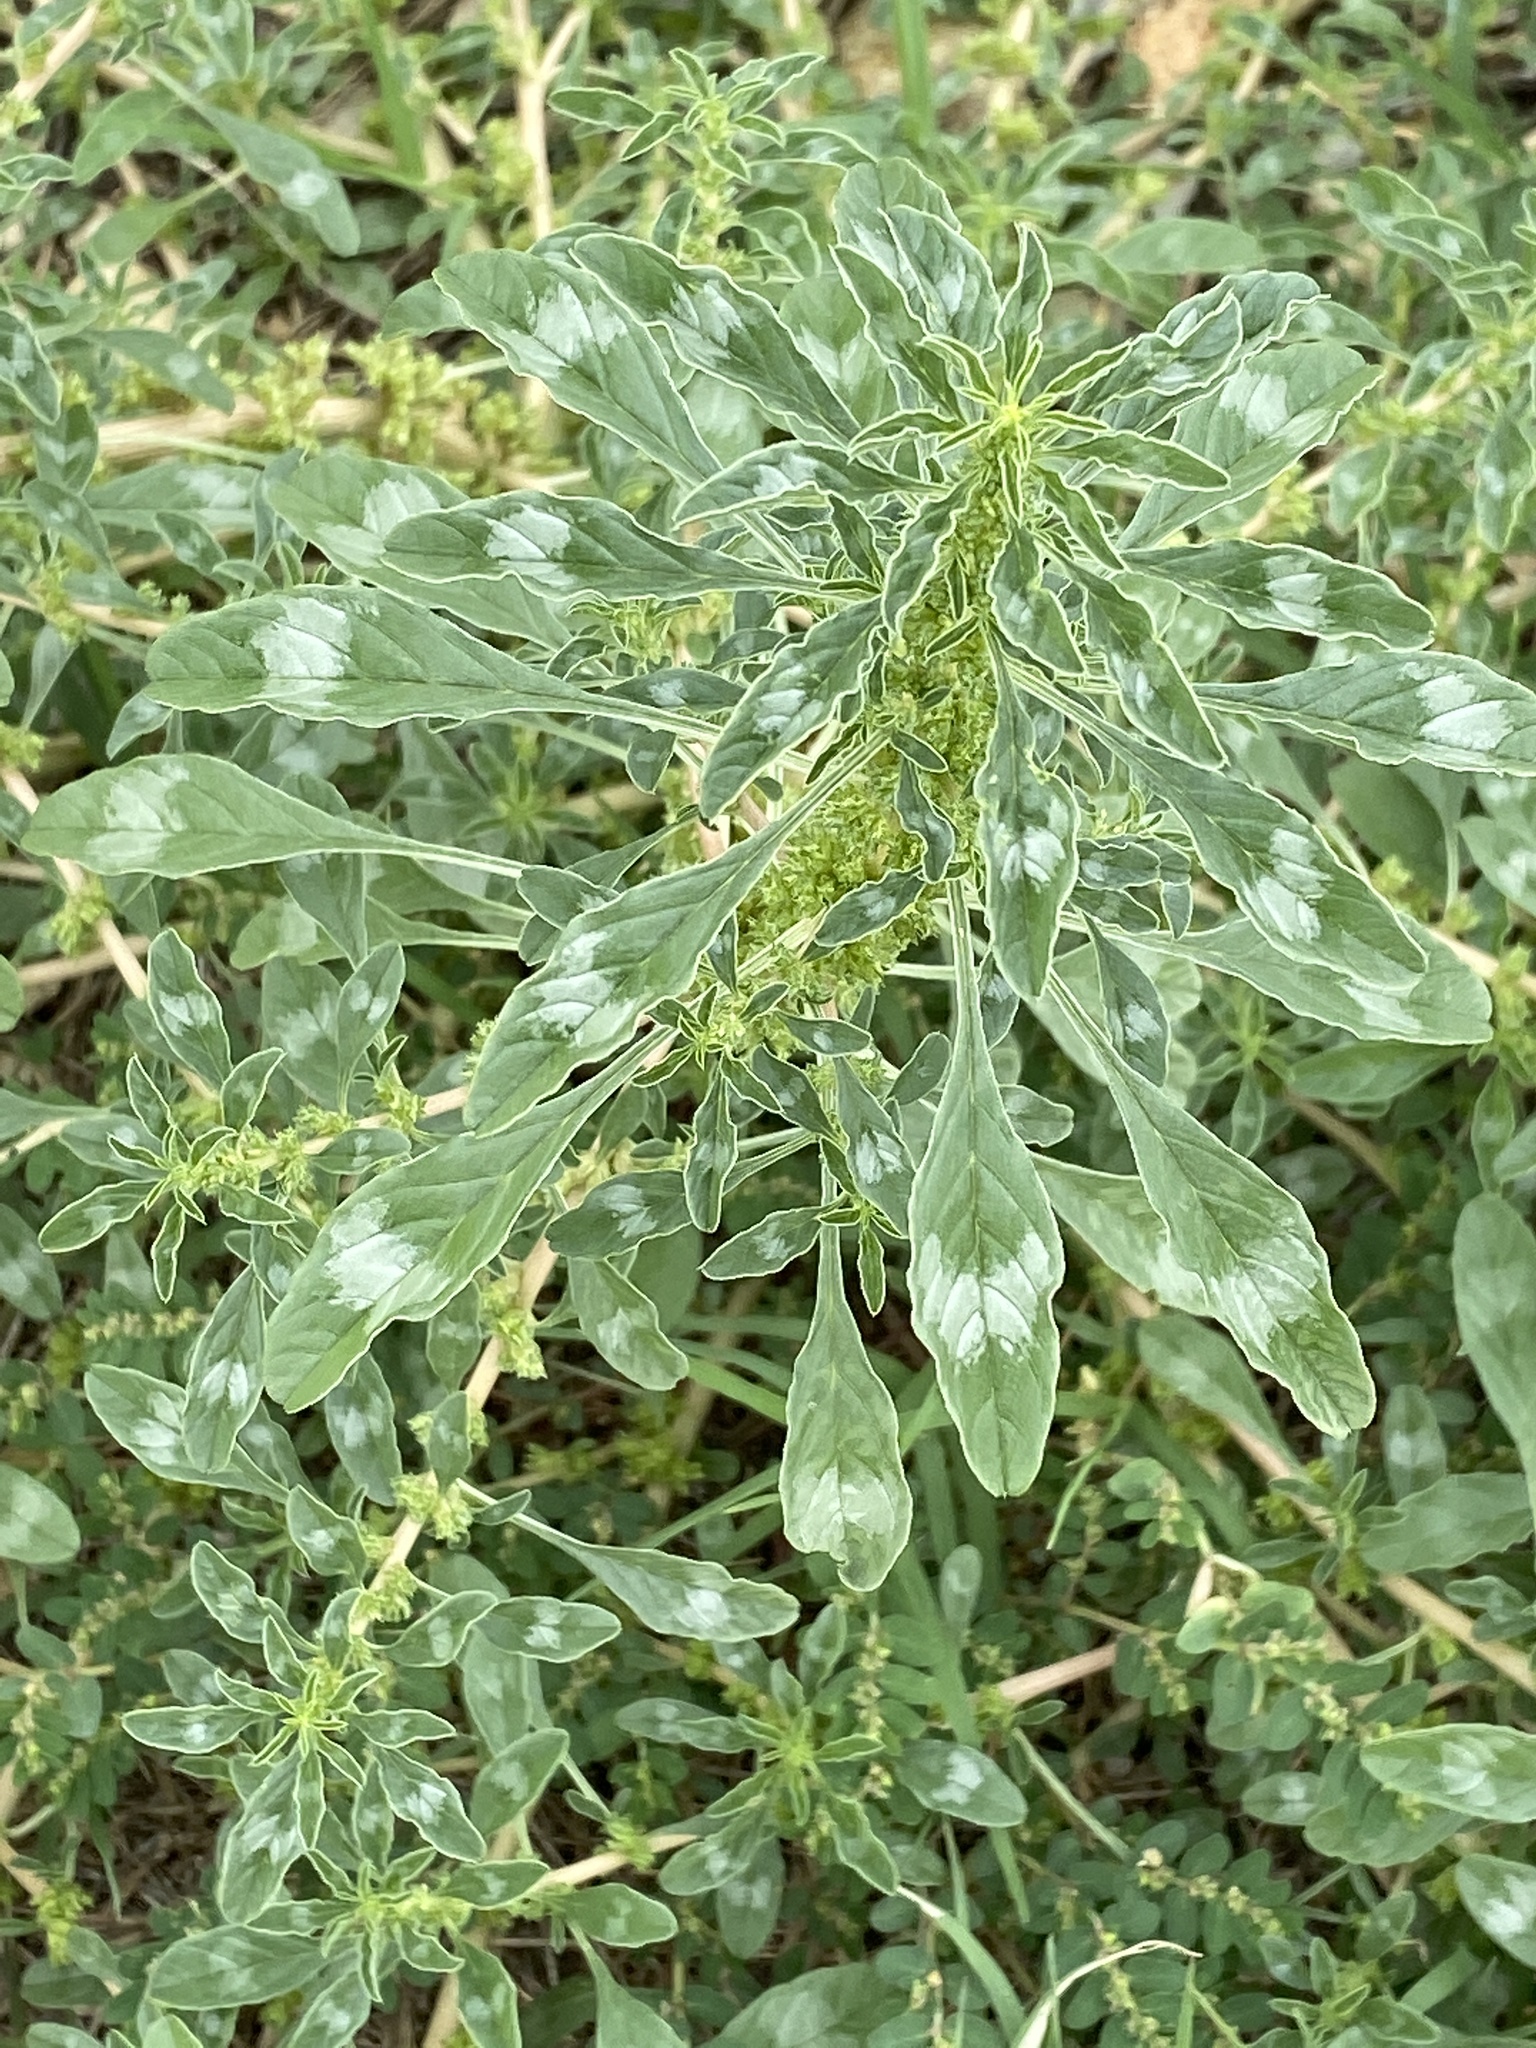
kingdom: Plantae
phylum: Tracheophyta
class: Magnoliopsida
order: Caryophyllales
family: Amaranthaceae
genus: Amaranthus
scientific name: Amaranthus albus
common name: White pigweed
